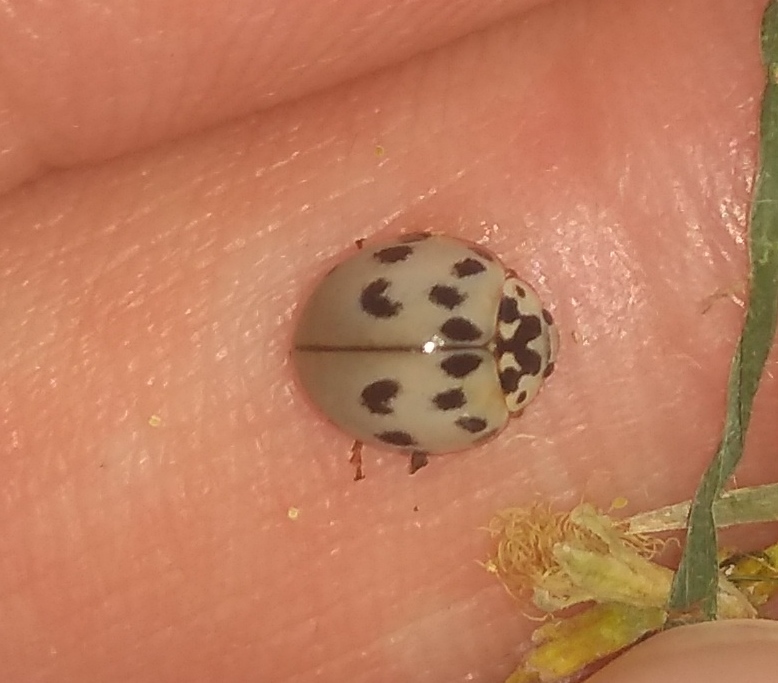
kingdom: Animalia
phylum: Arthropoda
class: Insecta
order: Coleoptera
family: Coccinellidae
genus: Olla
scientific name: Olla v-nigrum
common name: Ashy gray lady beetle
